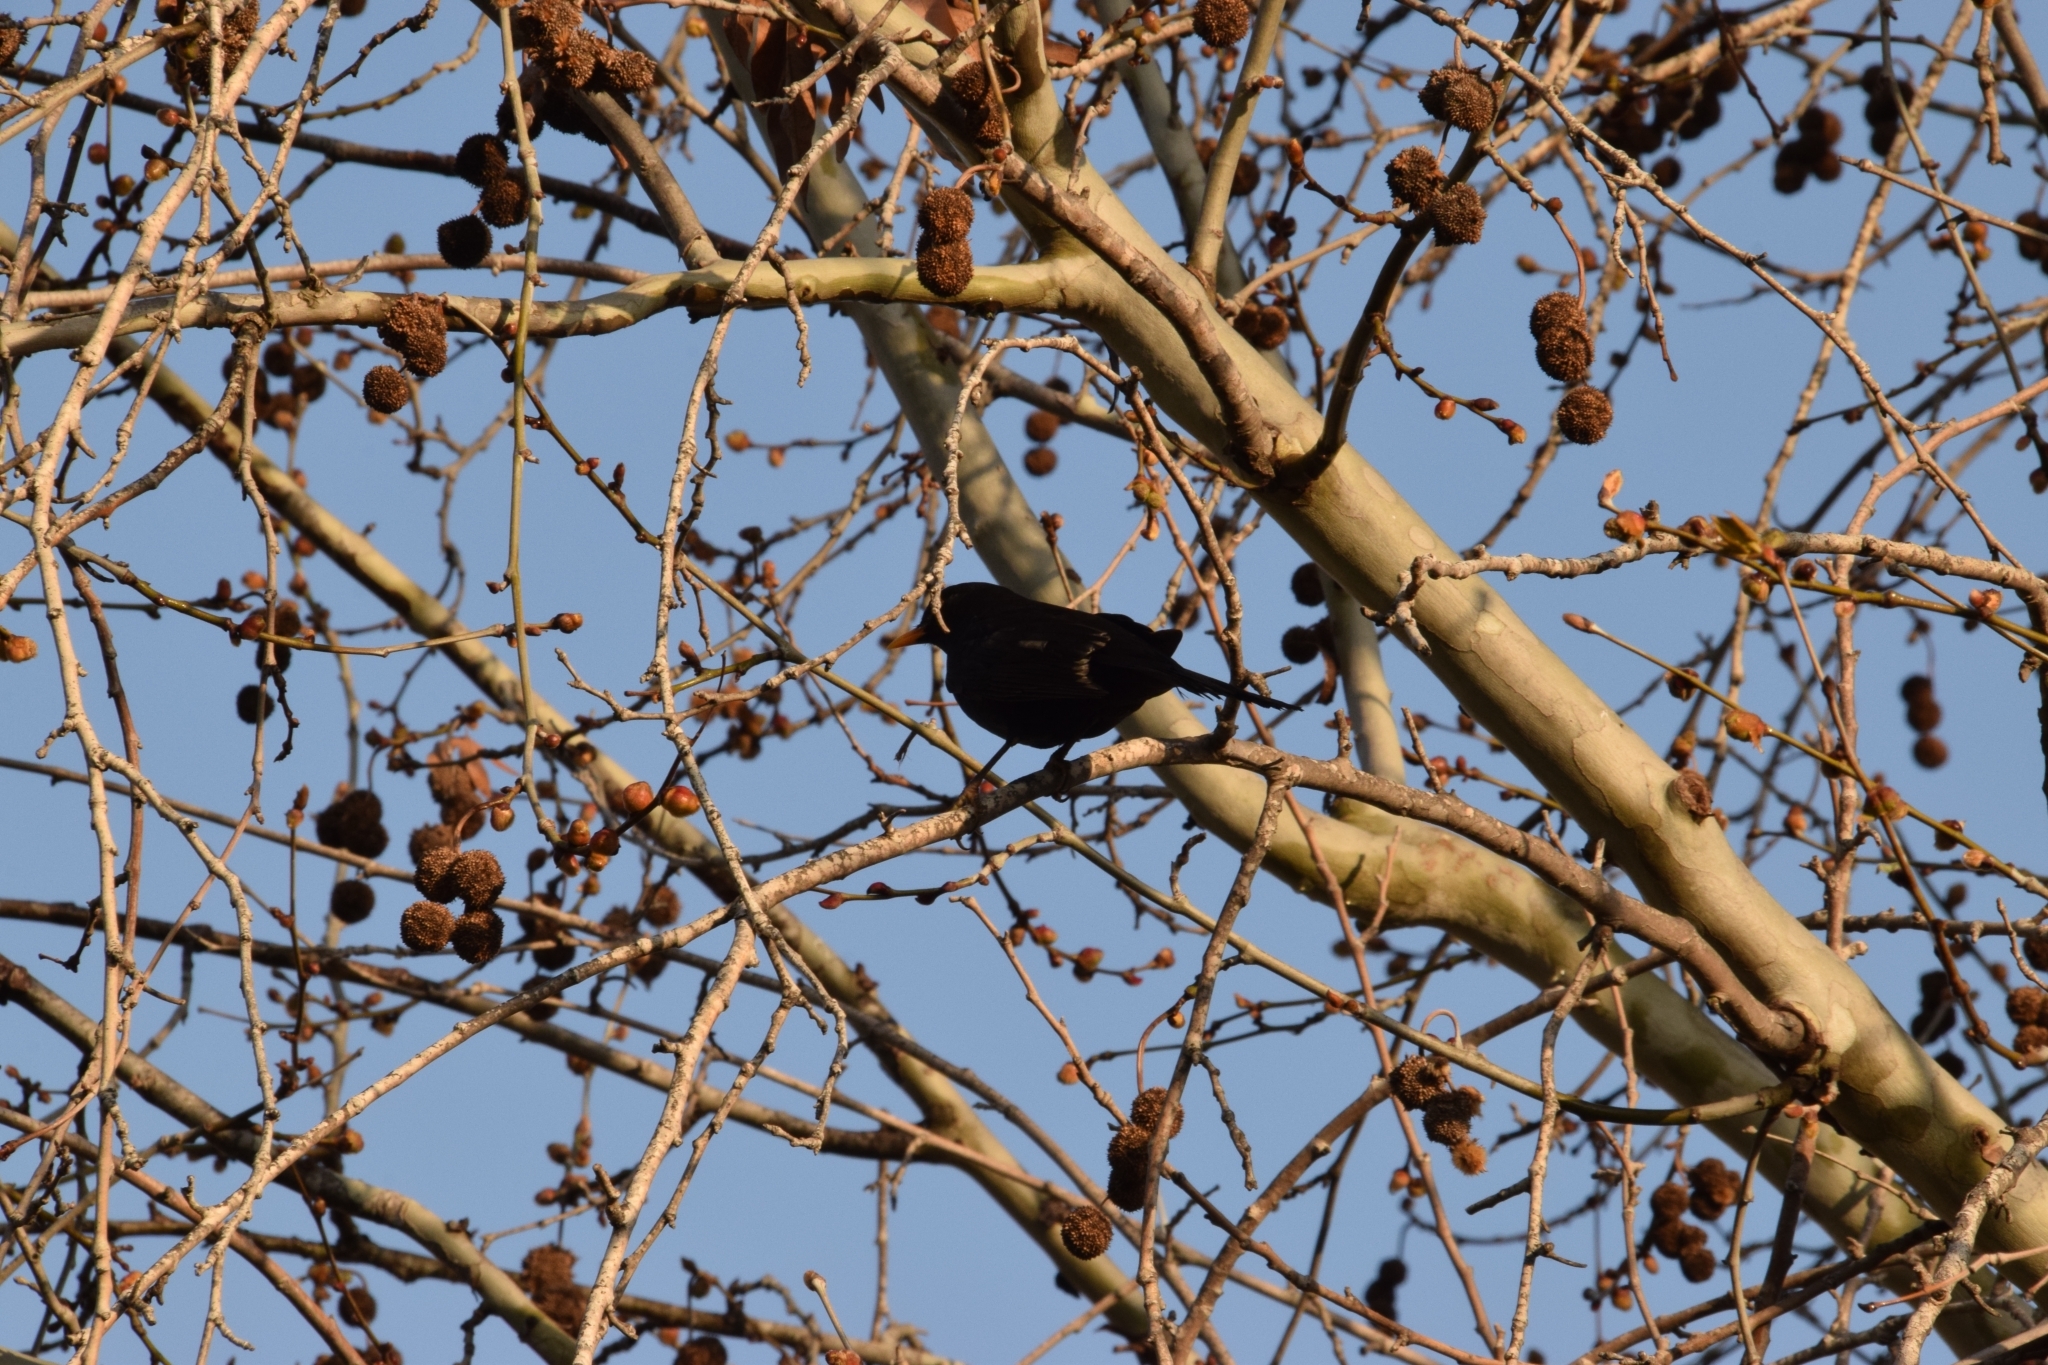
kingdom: Animalia
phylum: Chordata
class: Aves
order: Passeriformes
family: Turdidae
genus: Turdus
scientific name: Turdus merula
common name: Common blackbird
